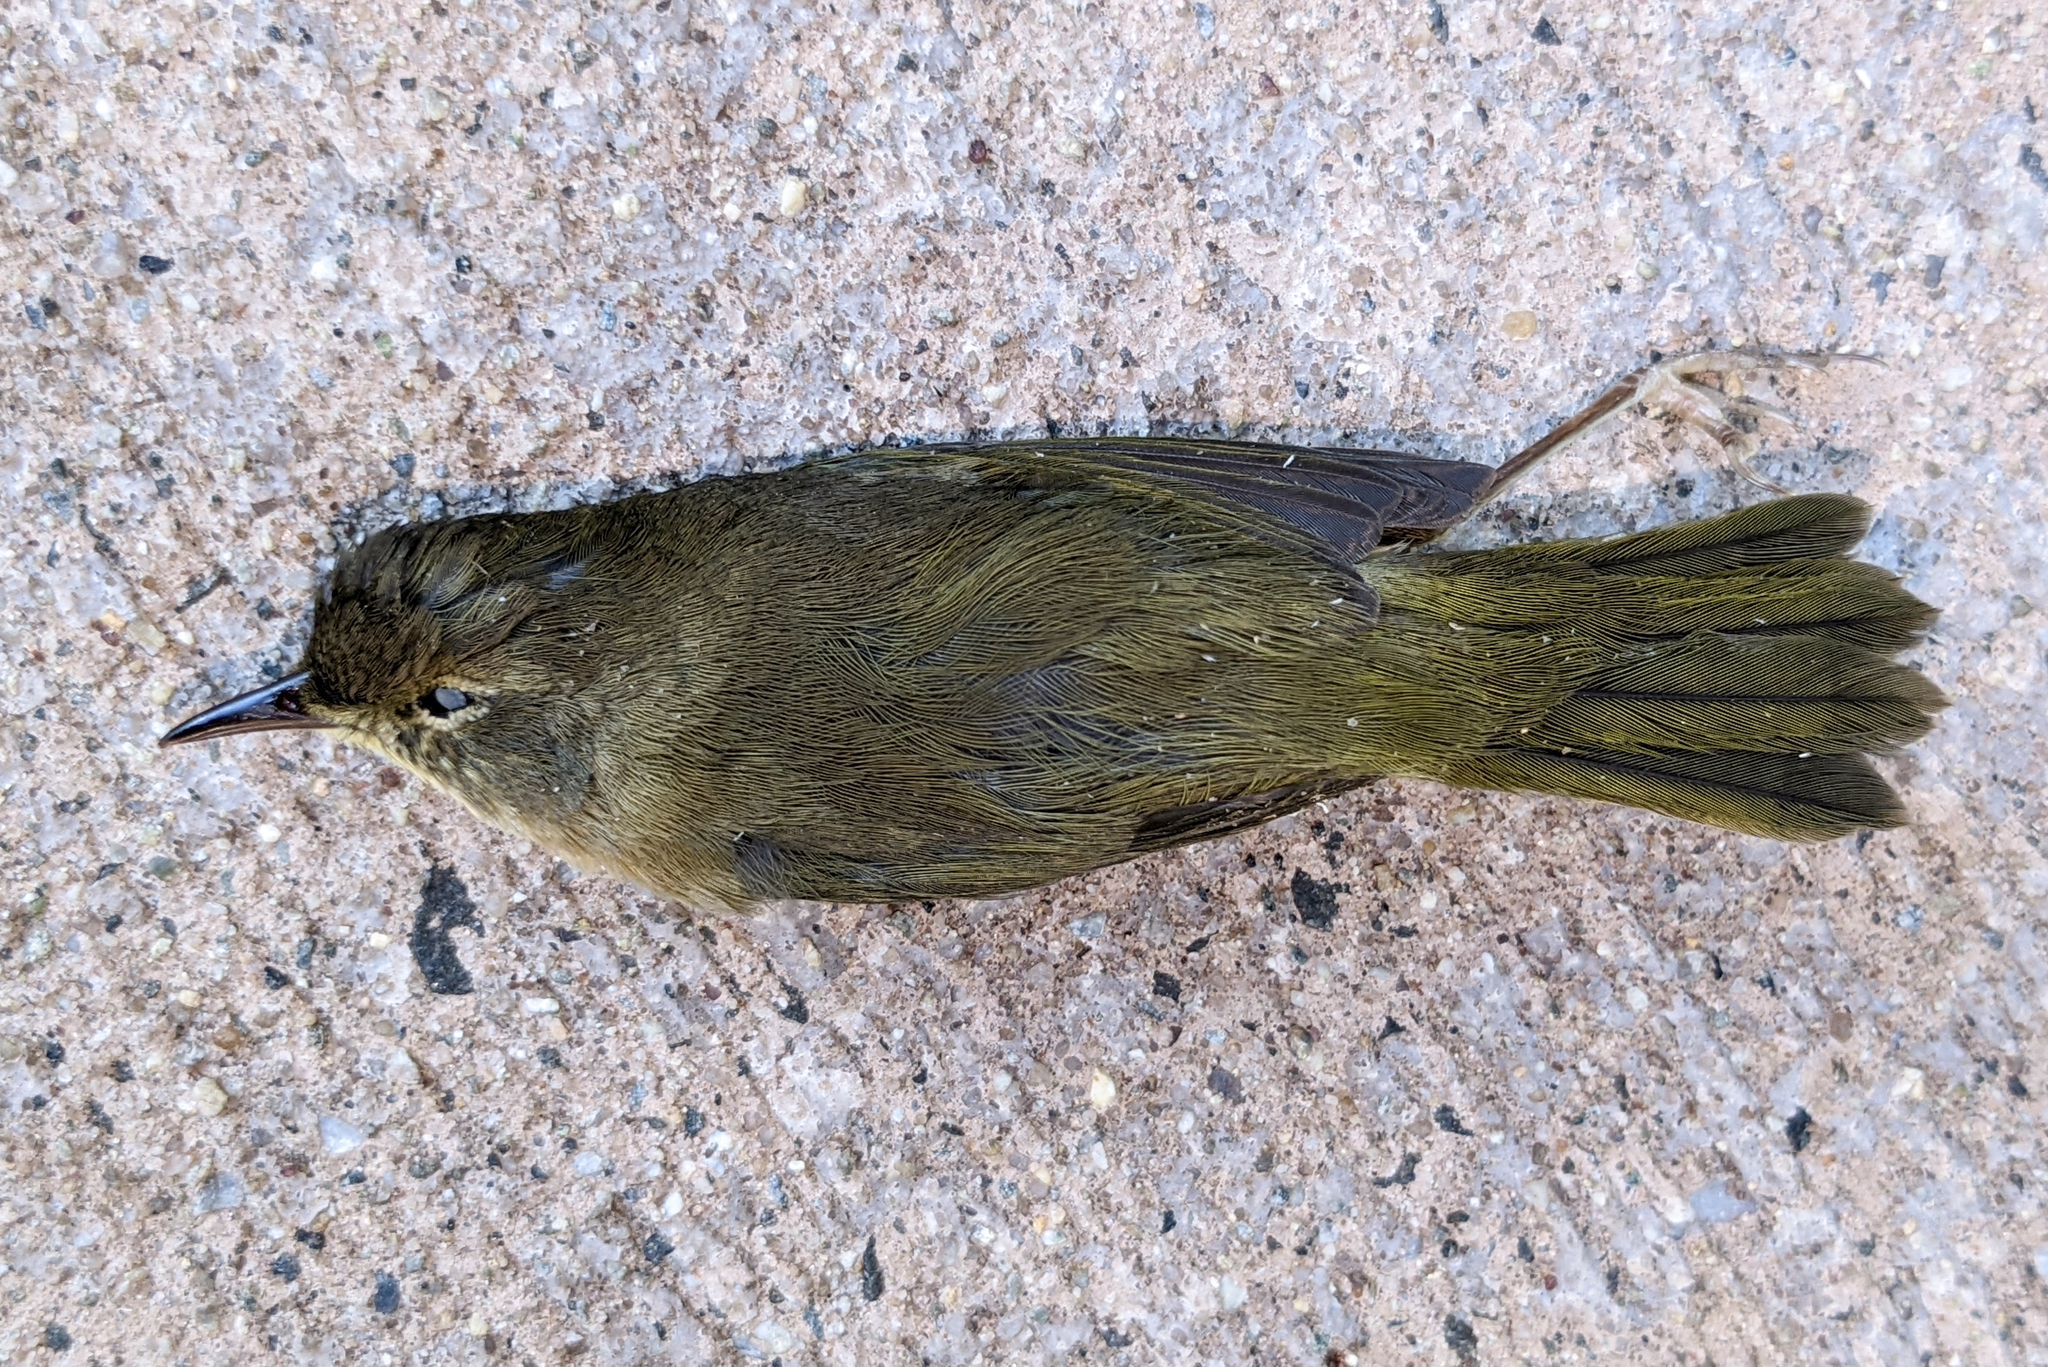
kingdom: Animalia
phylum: Chordata
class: Aves
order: Passeriformes
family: Parulidae
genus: Geothlypis
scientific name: Geothlypis trichas
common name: Common yellowthroat
